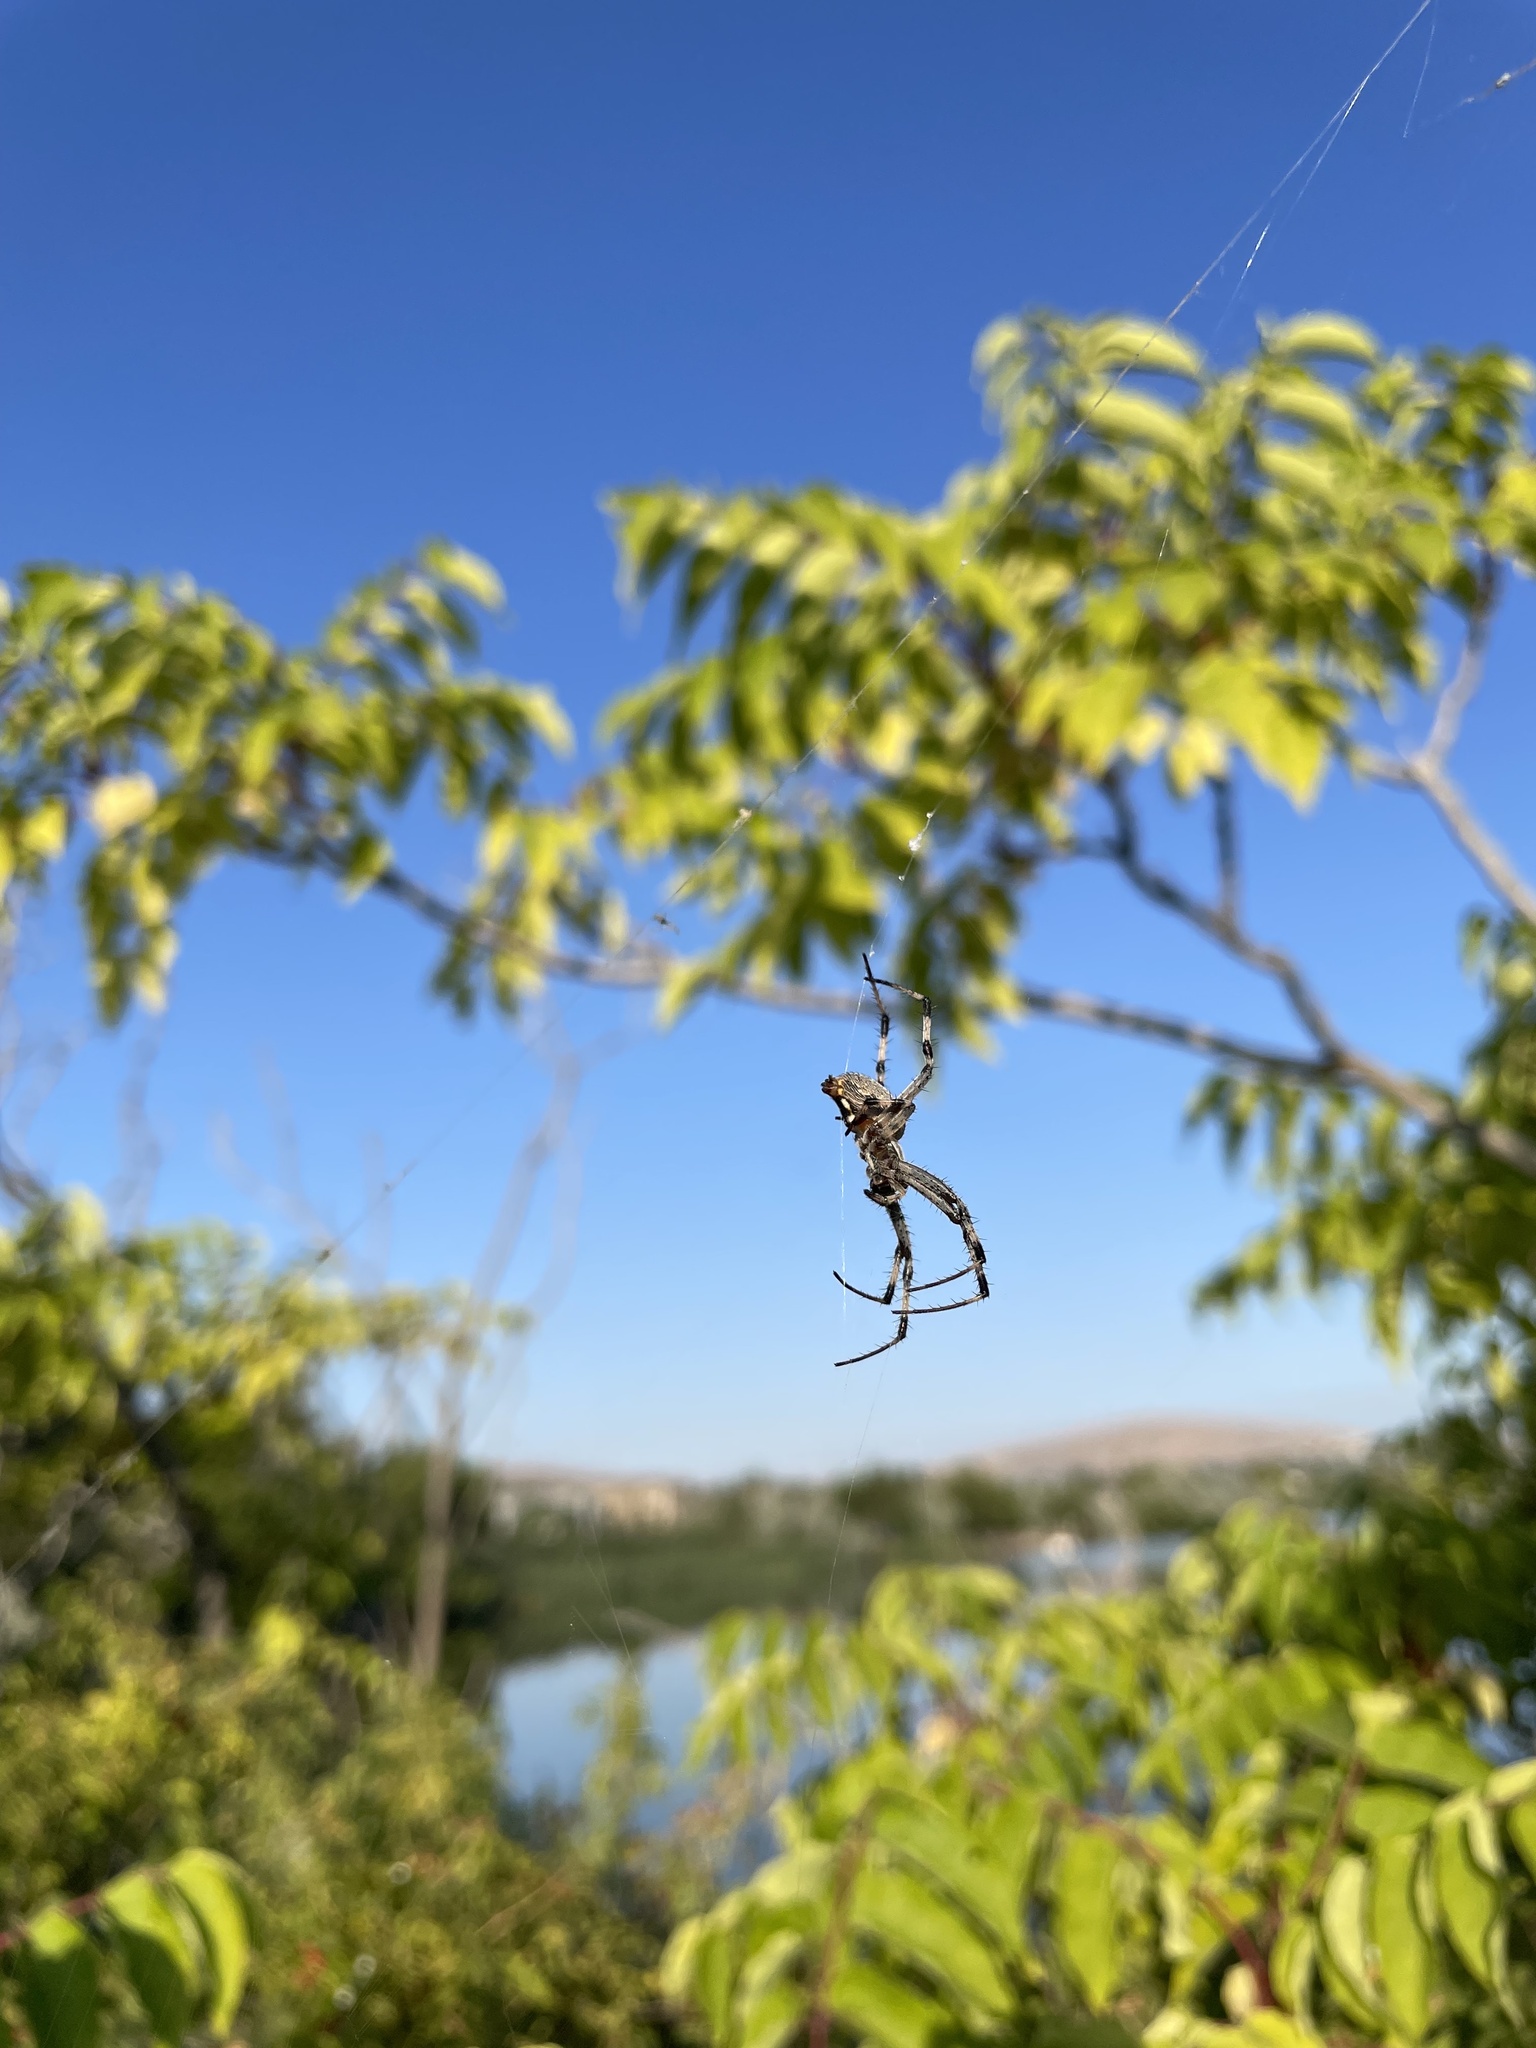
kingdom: Animalia
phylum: Arthropoda
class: Arachnida
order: Araneae
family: Araneidae
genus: Neoscona
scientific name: Neoscona oaxacensis
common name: Orb weavers
